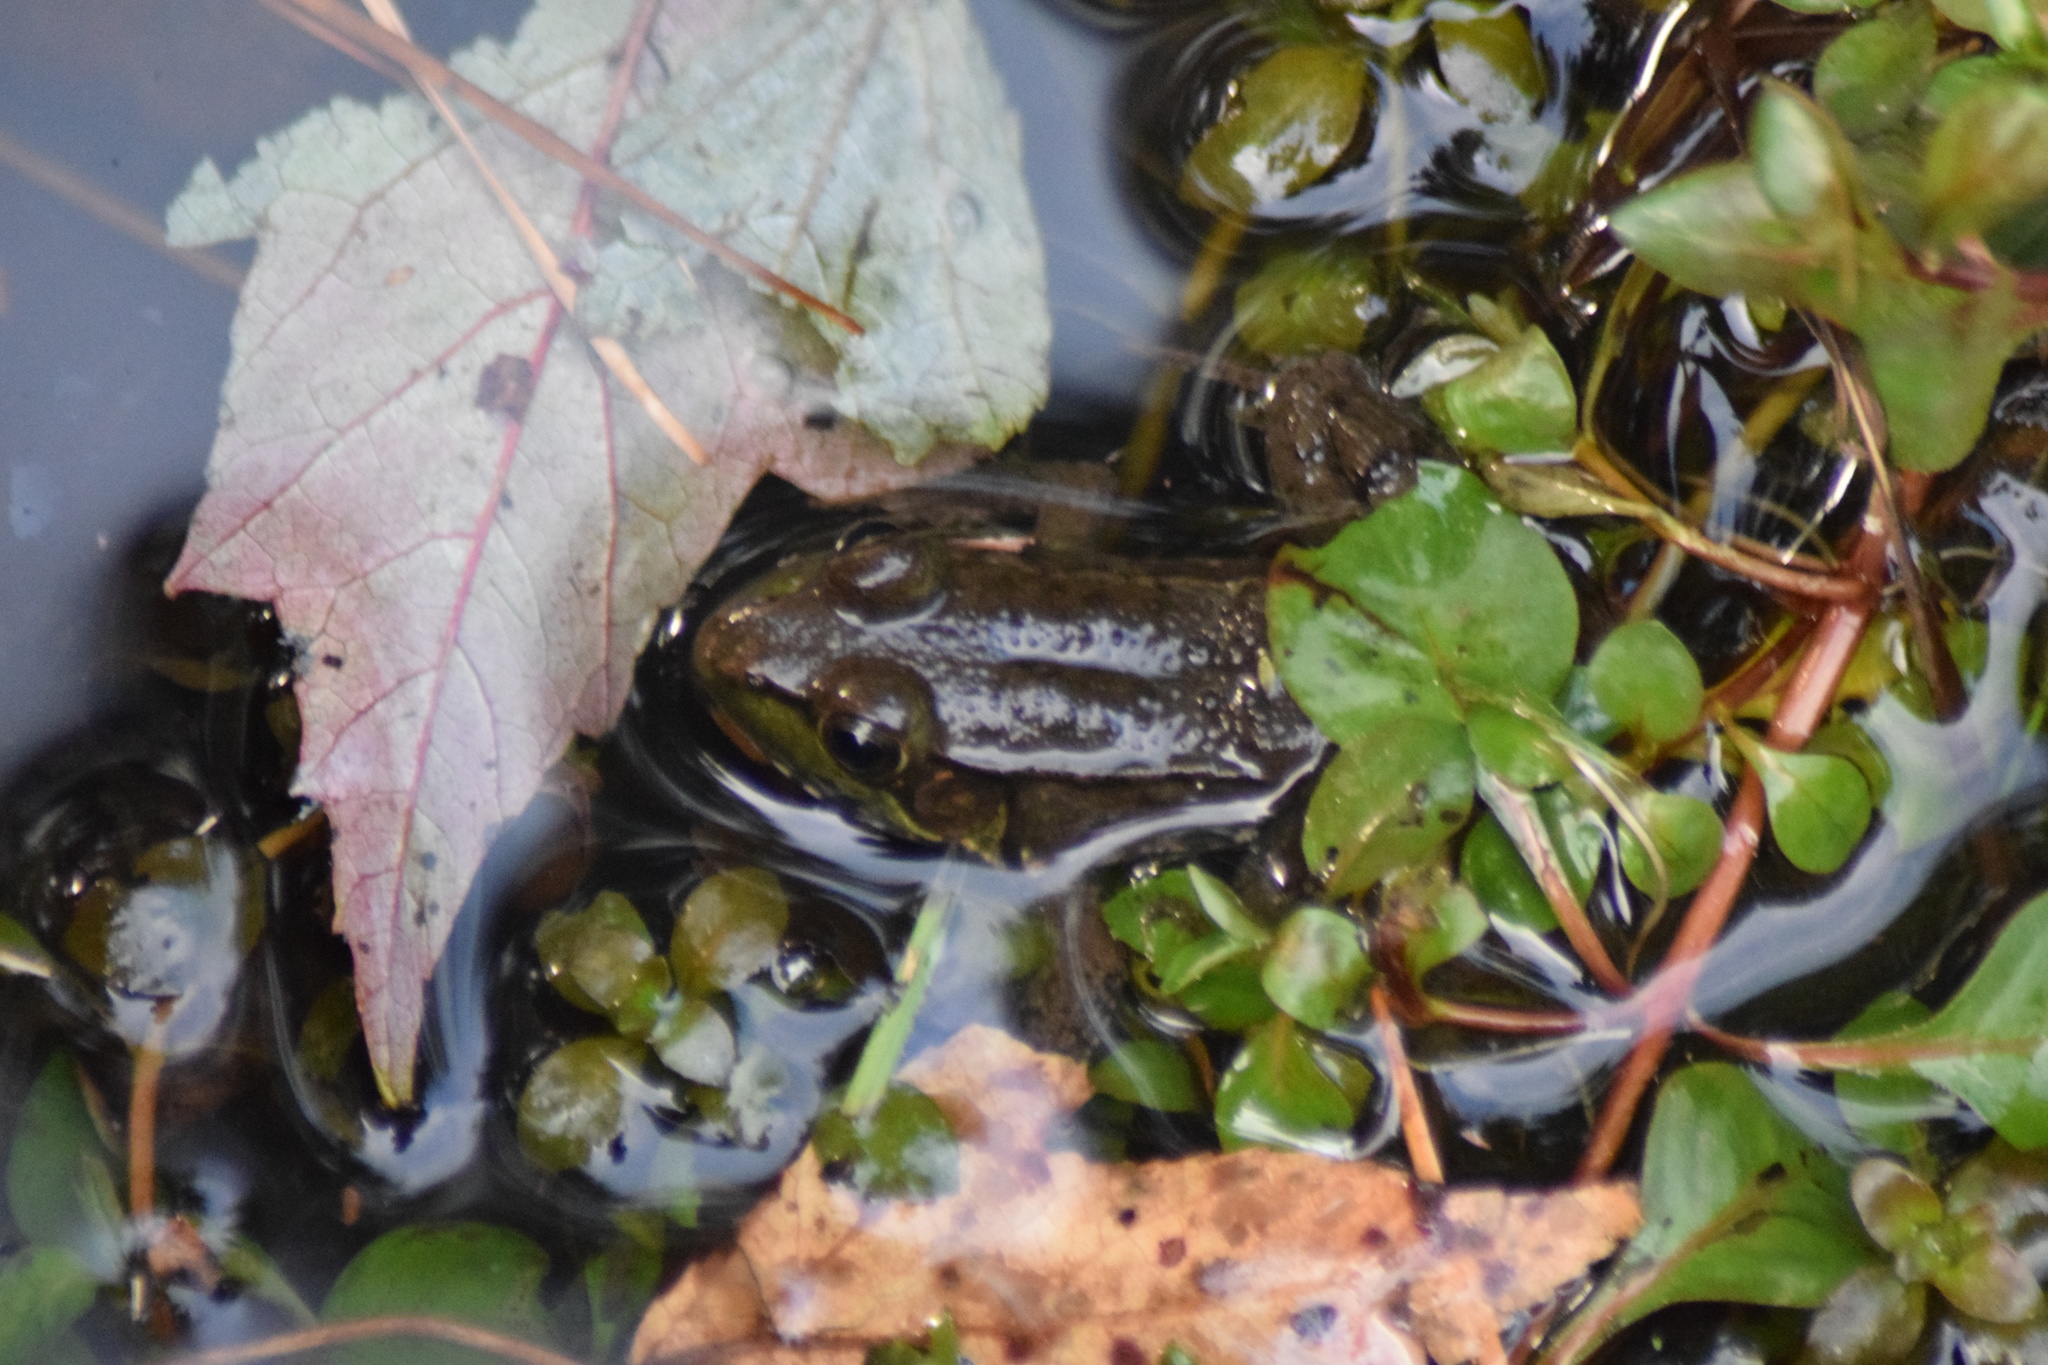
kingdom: Animalia
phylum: Chordata
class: Amphibia
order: Anura
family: Ranidae
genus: Lithobates
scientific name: Lithobates clamitans
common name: Green frog
